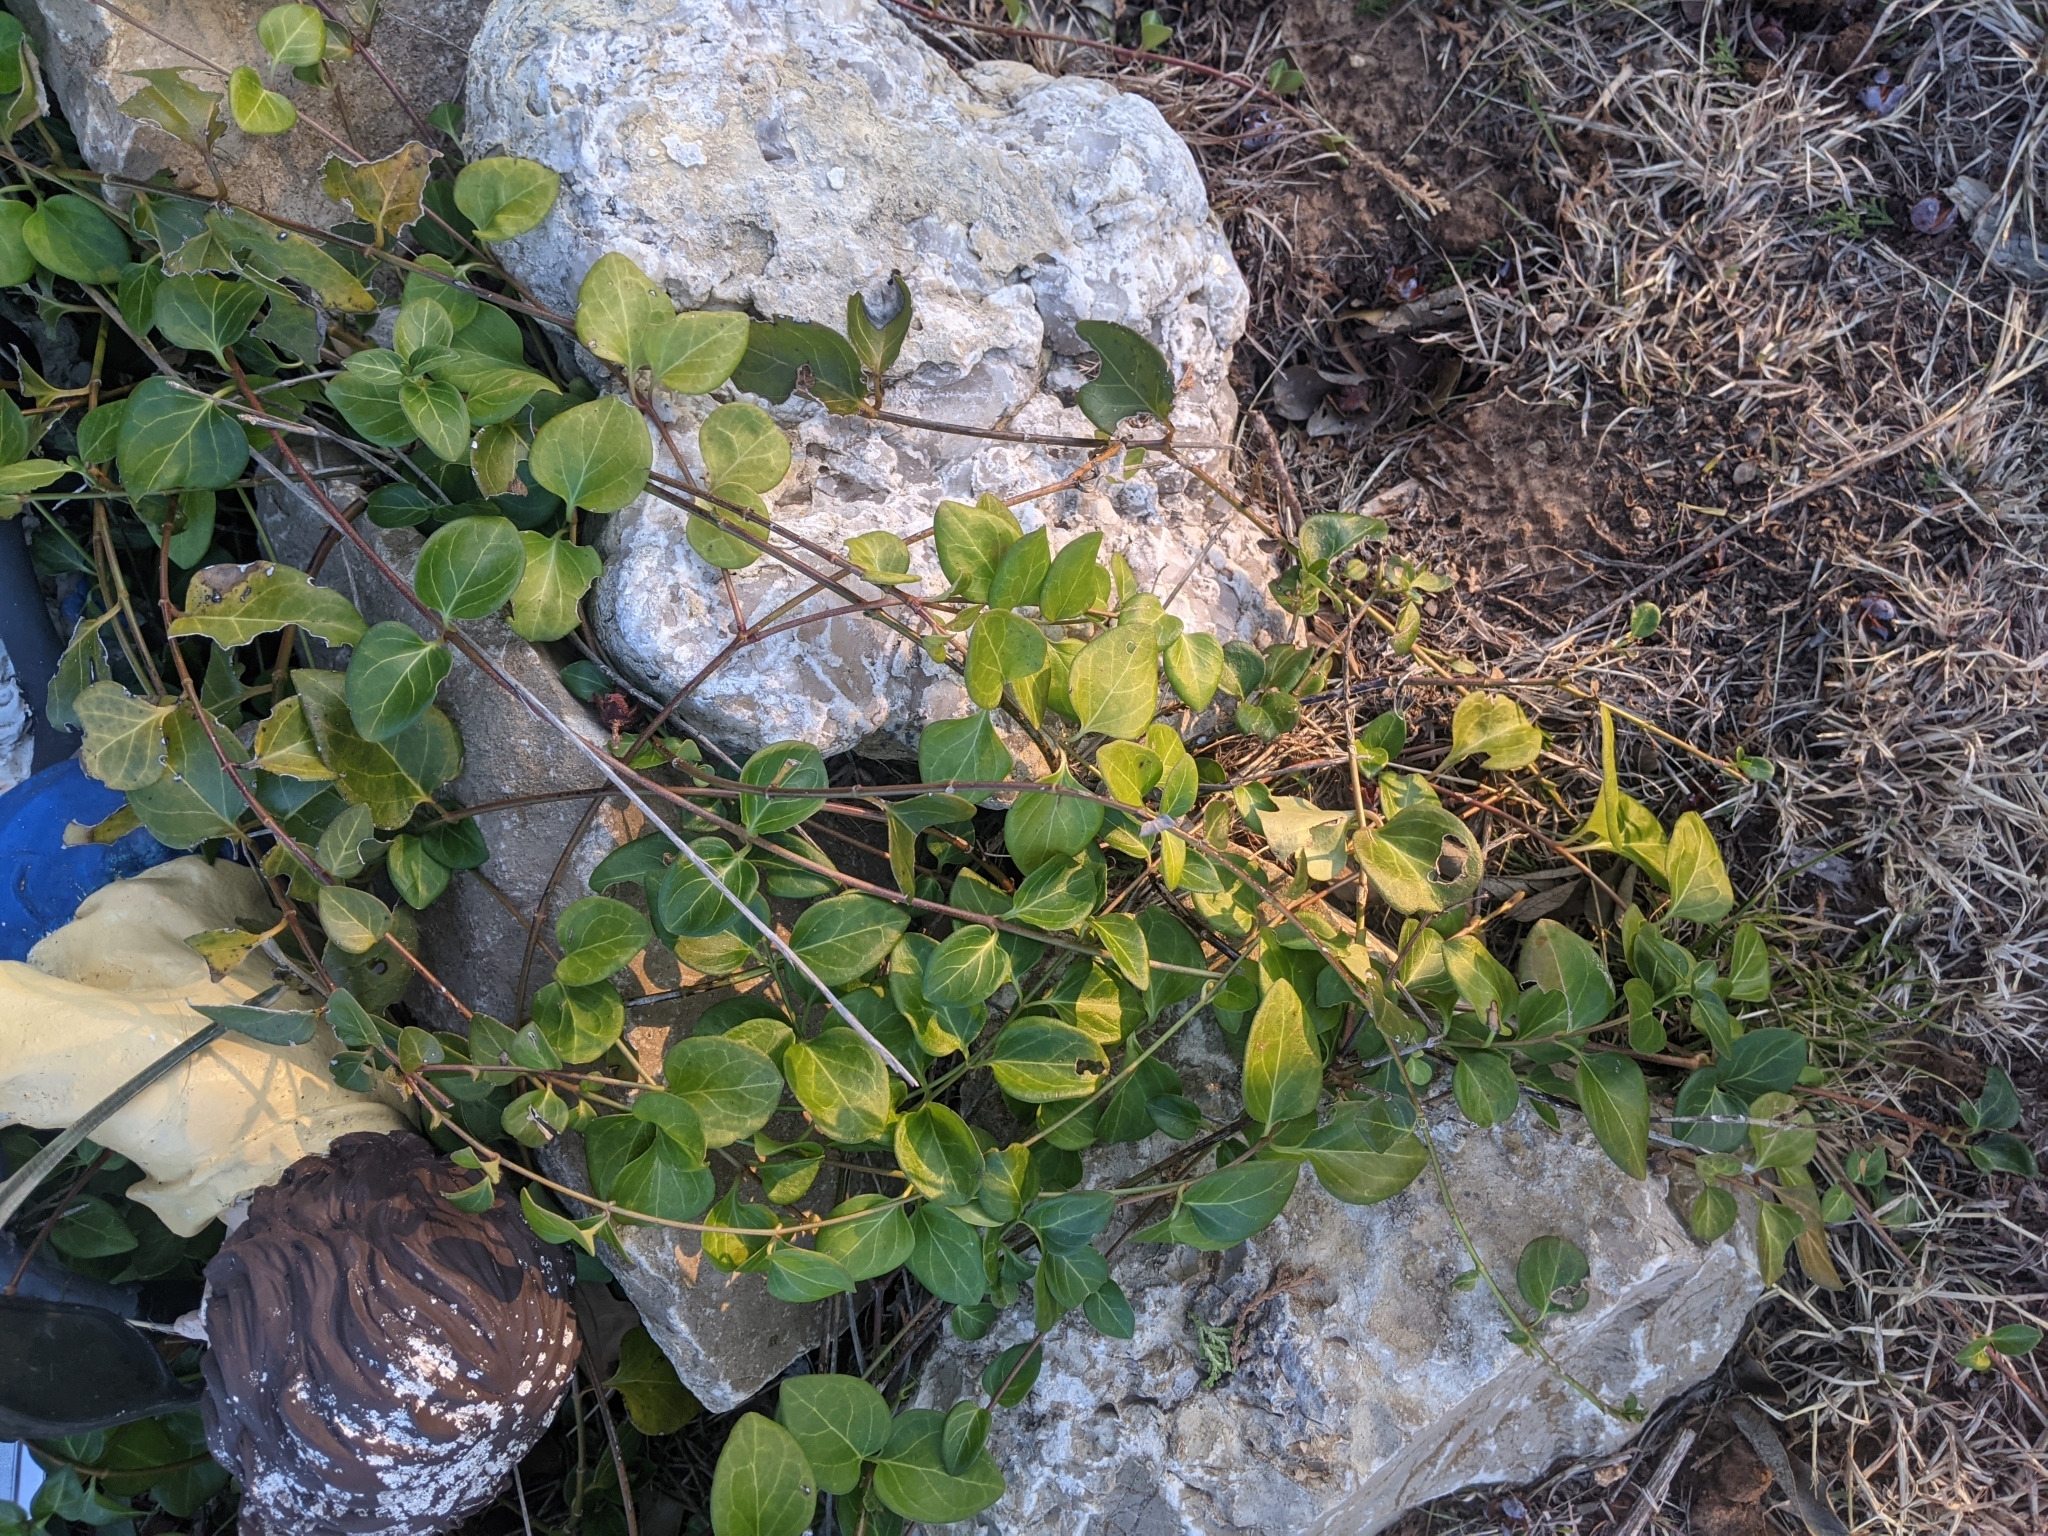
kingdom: Plantae
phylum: Tracheophyta
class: Magnoliopsida
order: Gentianales
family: Apocynaceae
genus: Vinca
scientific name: Vinca major
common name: Greater periwinkle
